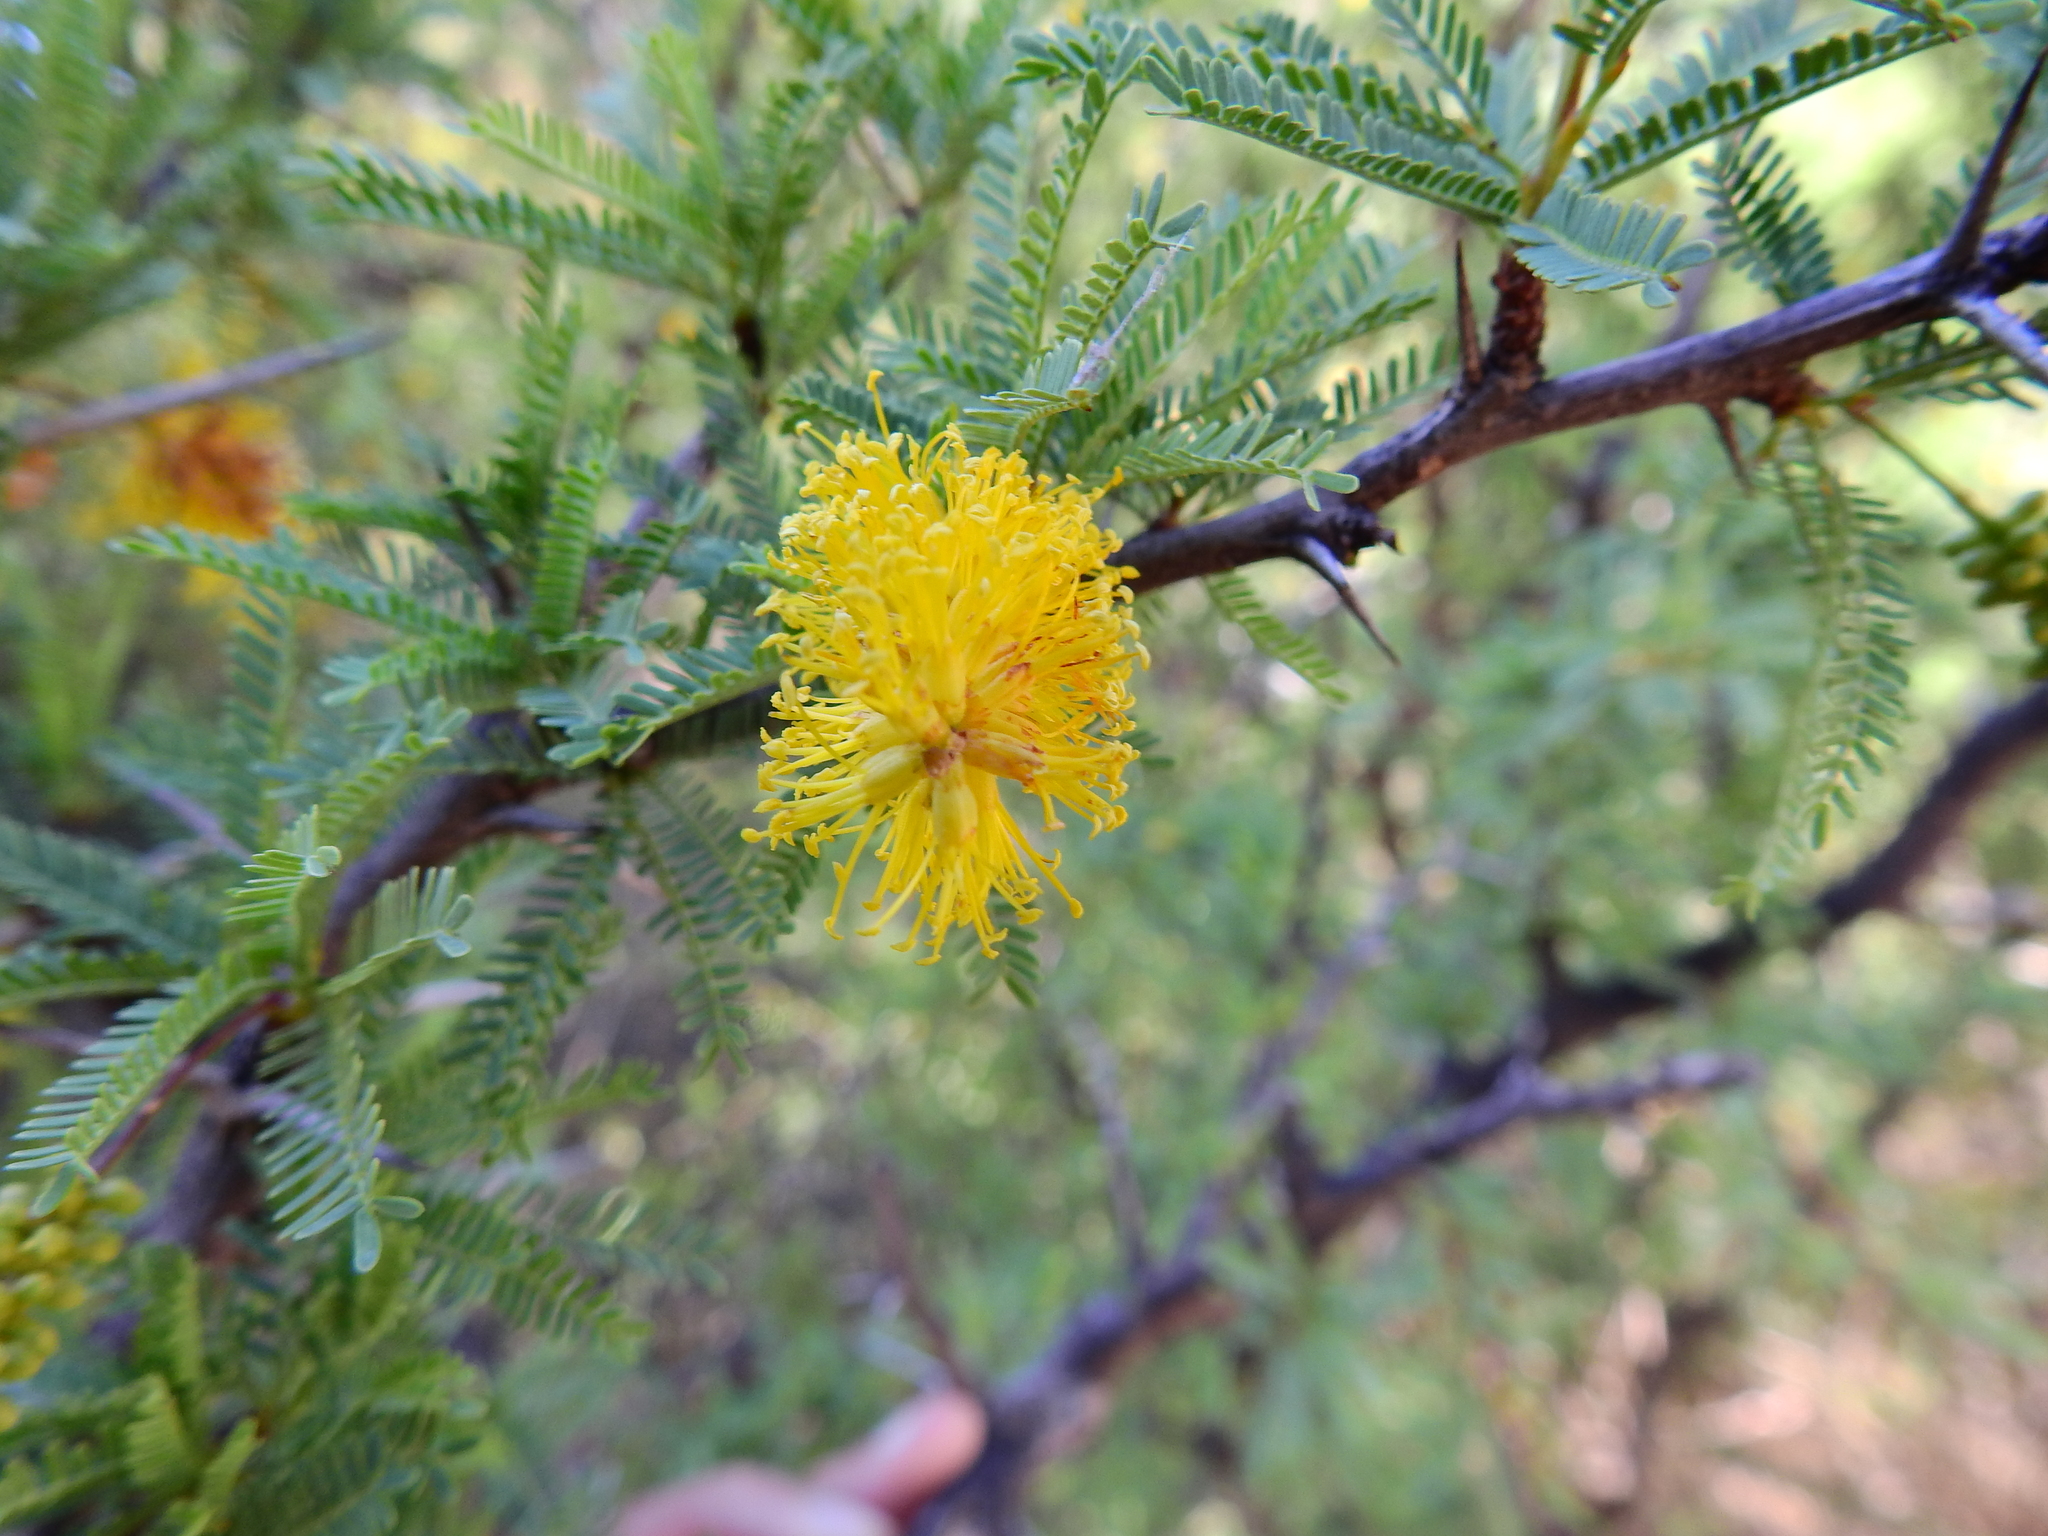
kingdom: Plantae
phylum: Tracheophyta
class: Magnoliopsida
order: Fabales
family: Fabaceae
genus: Prosopis
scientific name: Prosopis torquata
